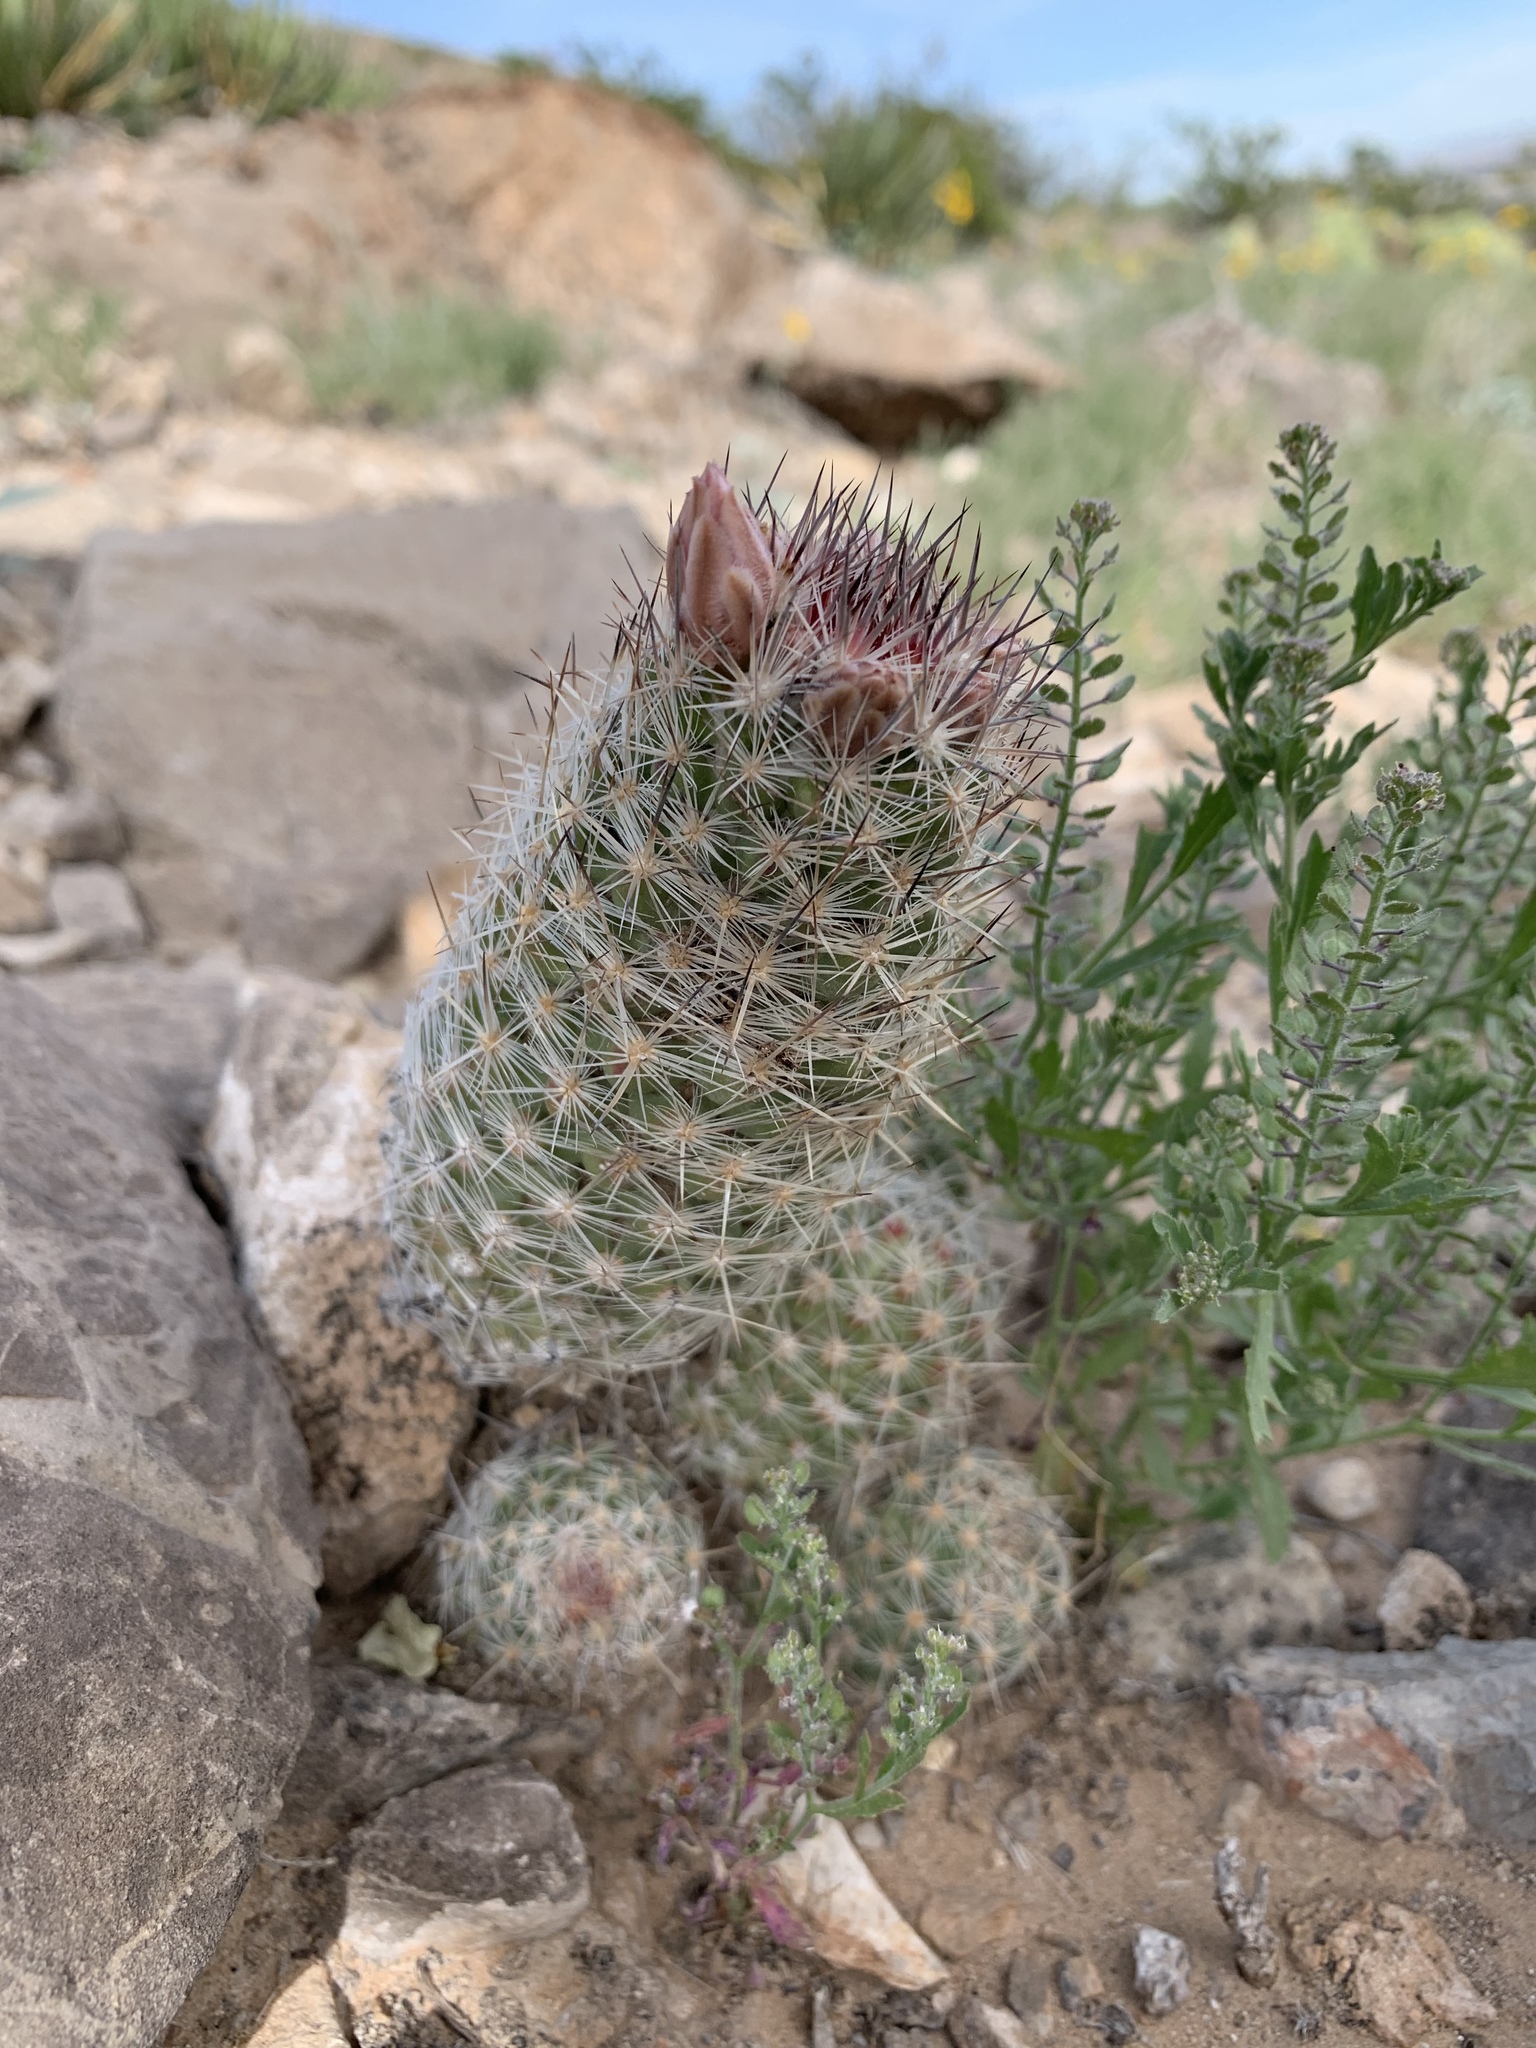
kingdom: Plantae
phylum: Tracheophyta
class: Magnoliopsida
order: Caryophyllales
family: Cactaceae
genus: Pelecyphora
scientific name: Pelecyphora tuberculosa
